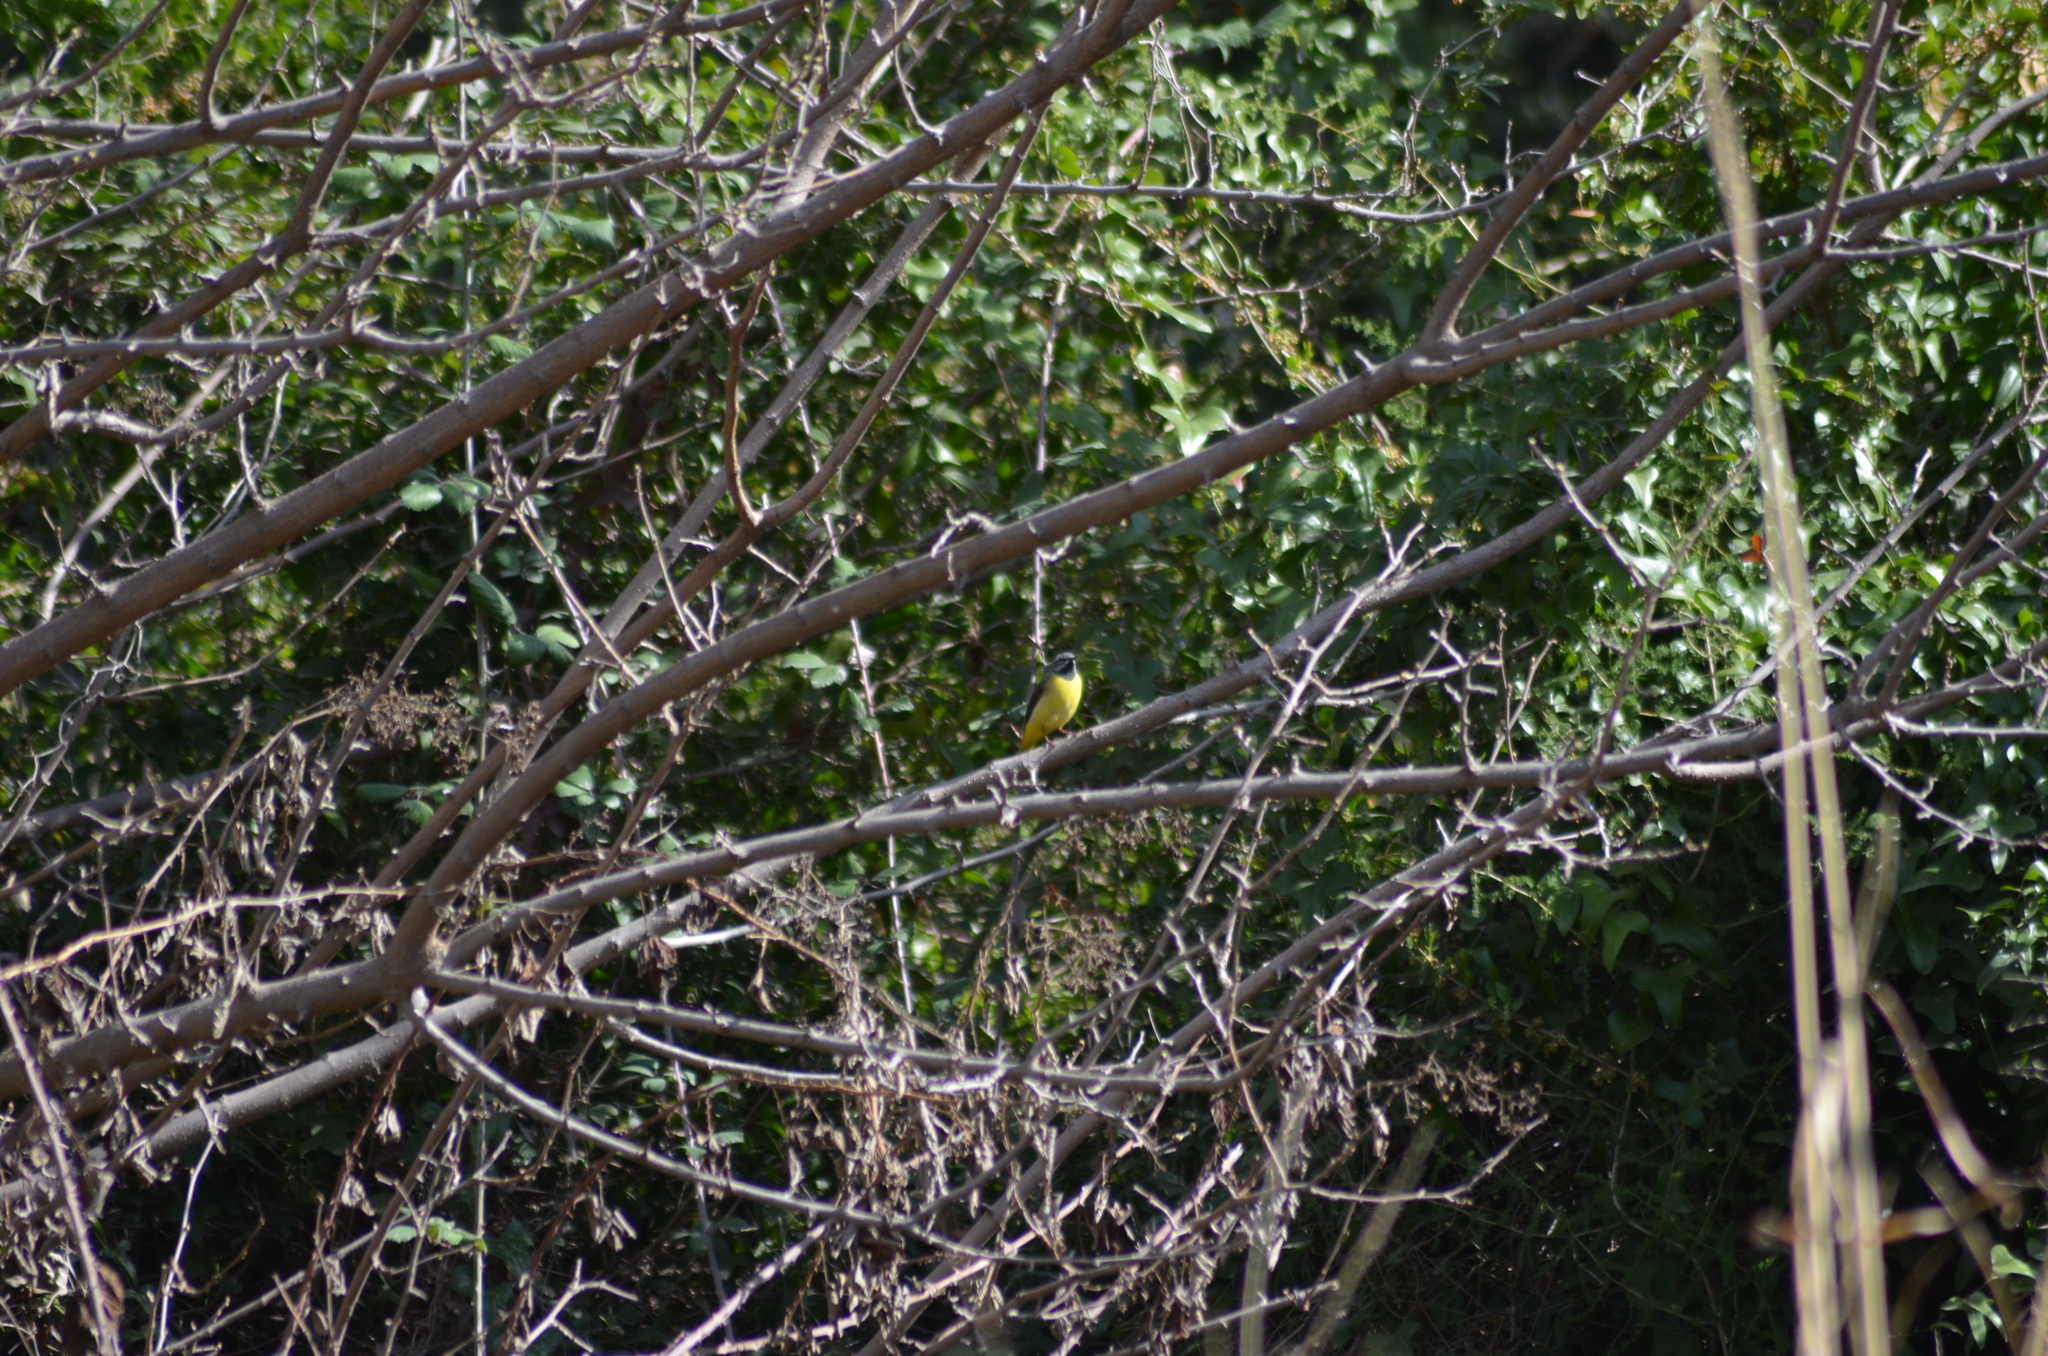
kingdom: Animalia
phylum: Chordata
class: Aves
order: Passeriformes
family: Motacillidae
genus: Motacilla
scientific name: Motacilla cinerea
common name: Grey wagtail
